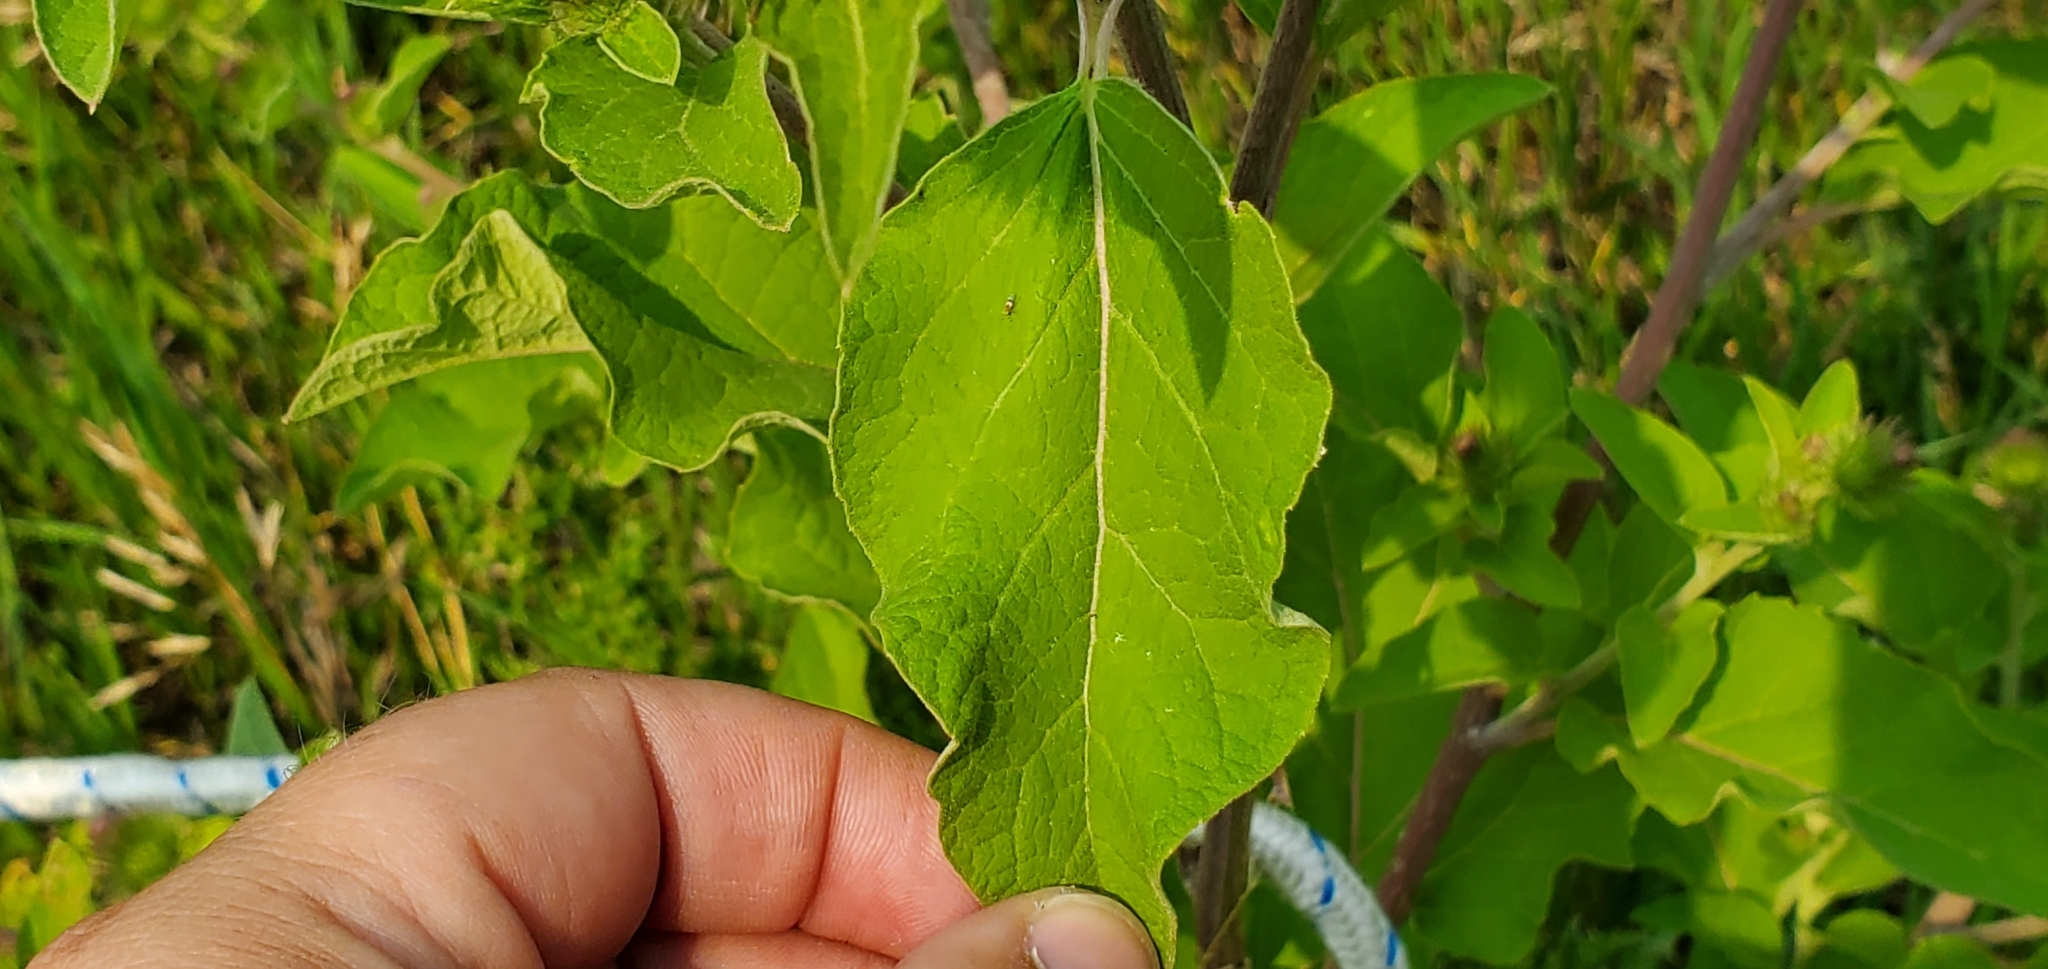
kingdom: Plantae
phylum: Tracheophyta
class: Magnoliopsida
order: Asterales
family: Asteraceae
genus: Arctium
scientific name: Arctium minus
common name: Lesser burdock
